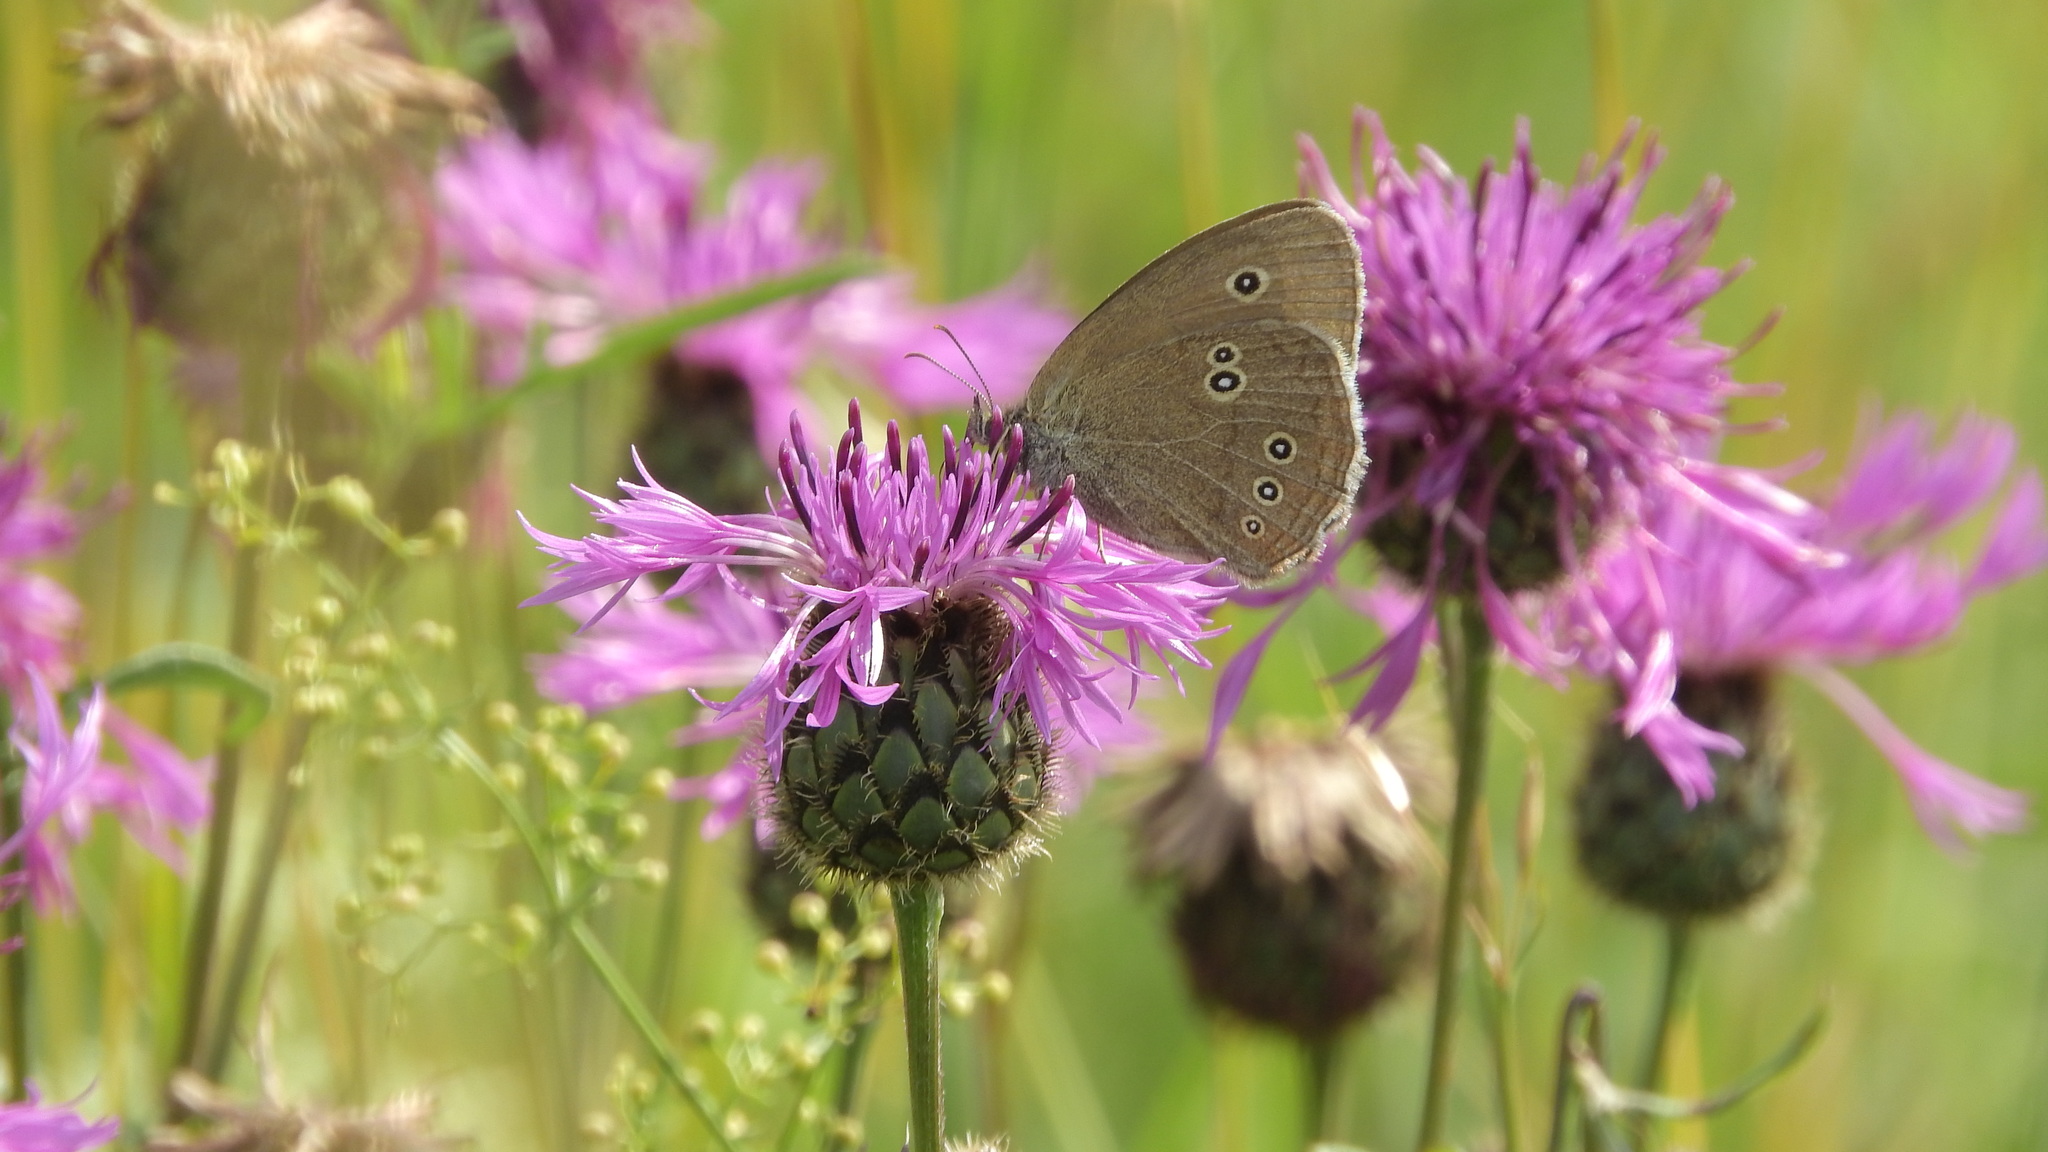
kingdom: Animalia
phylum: Arthropoda
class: Insecta
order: Lepidoptera
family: Nymphalidae
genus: Aphantopus
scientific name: Aphantopus hyperantus
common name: Ringlet
